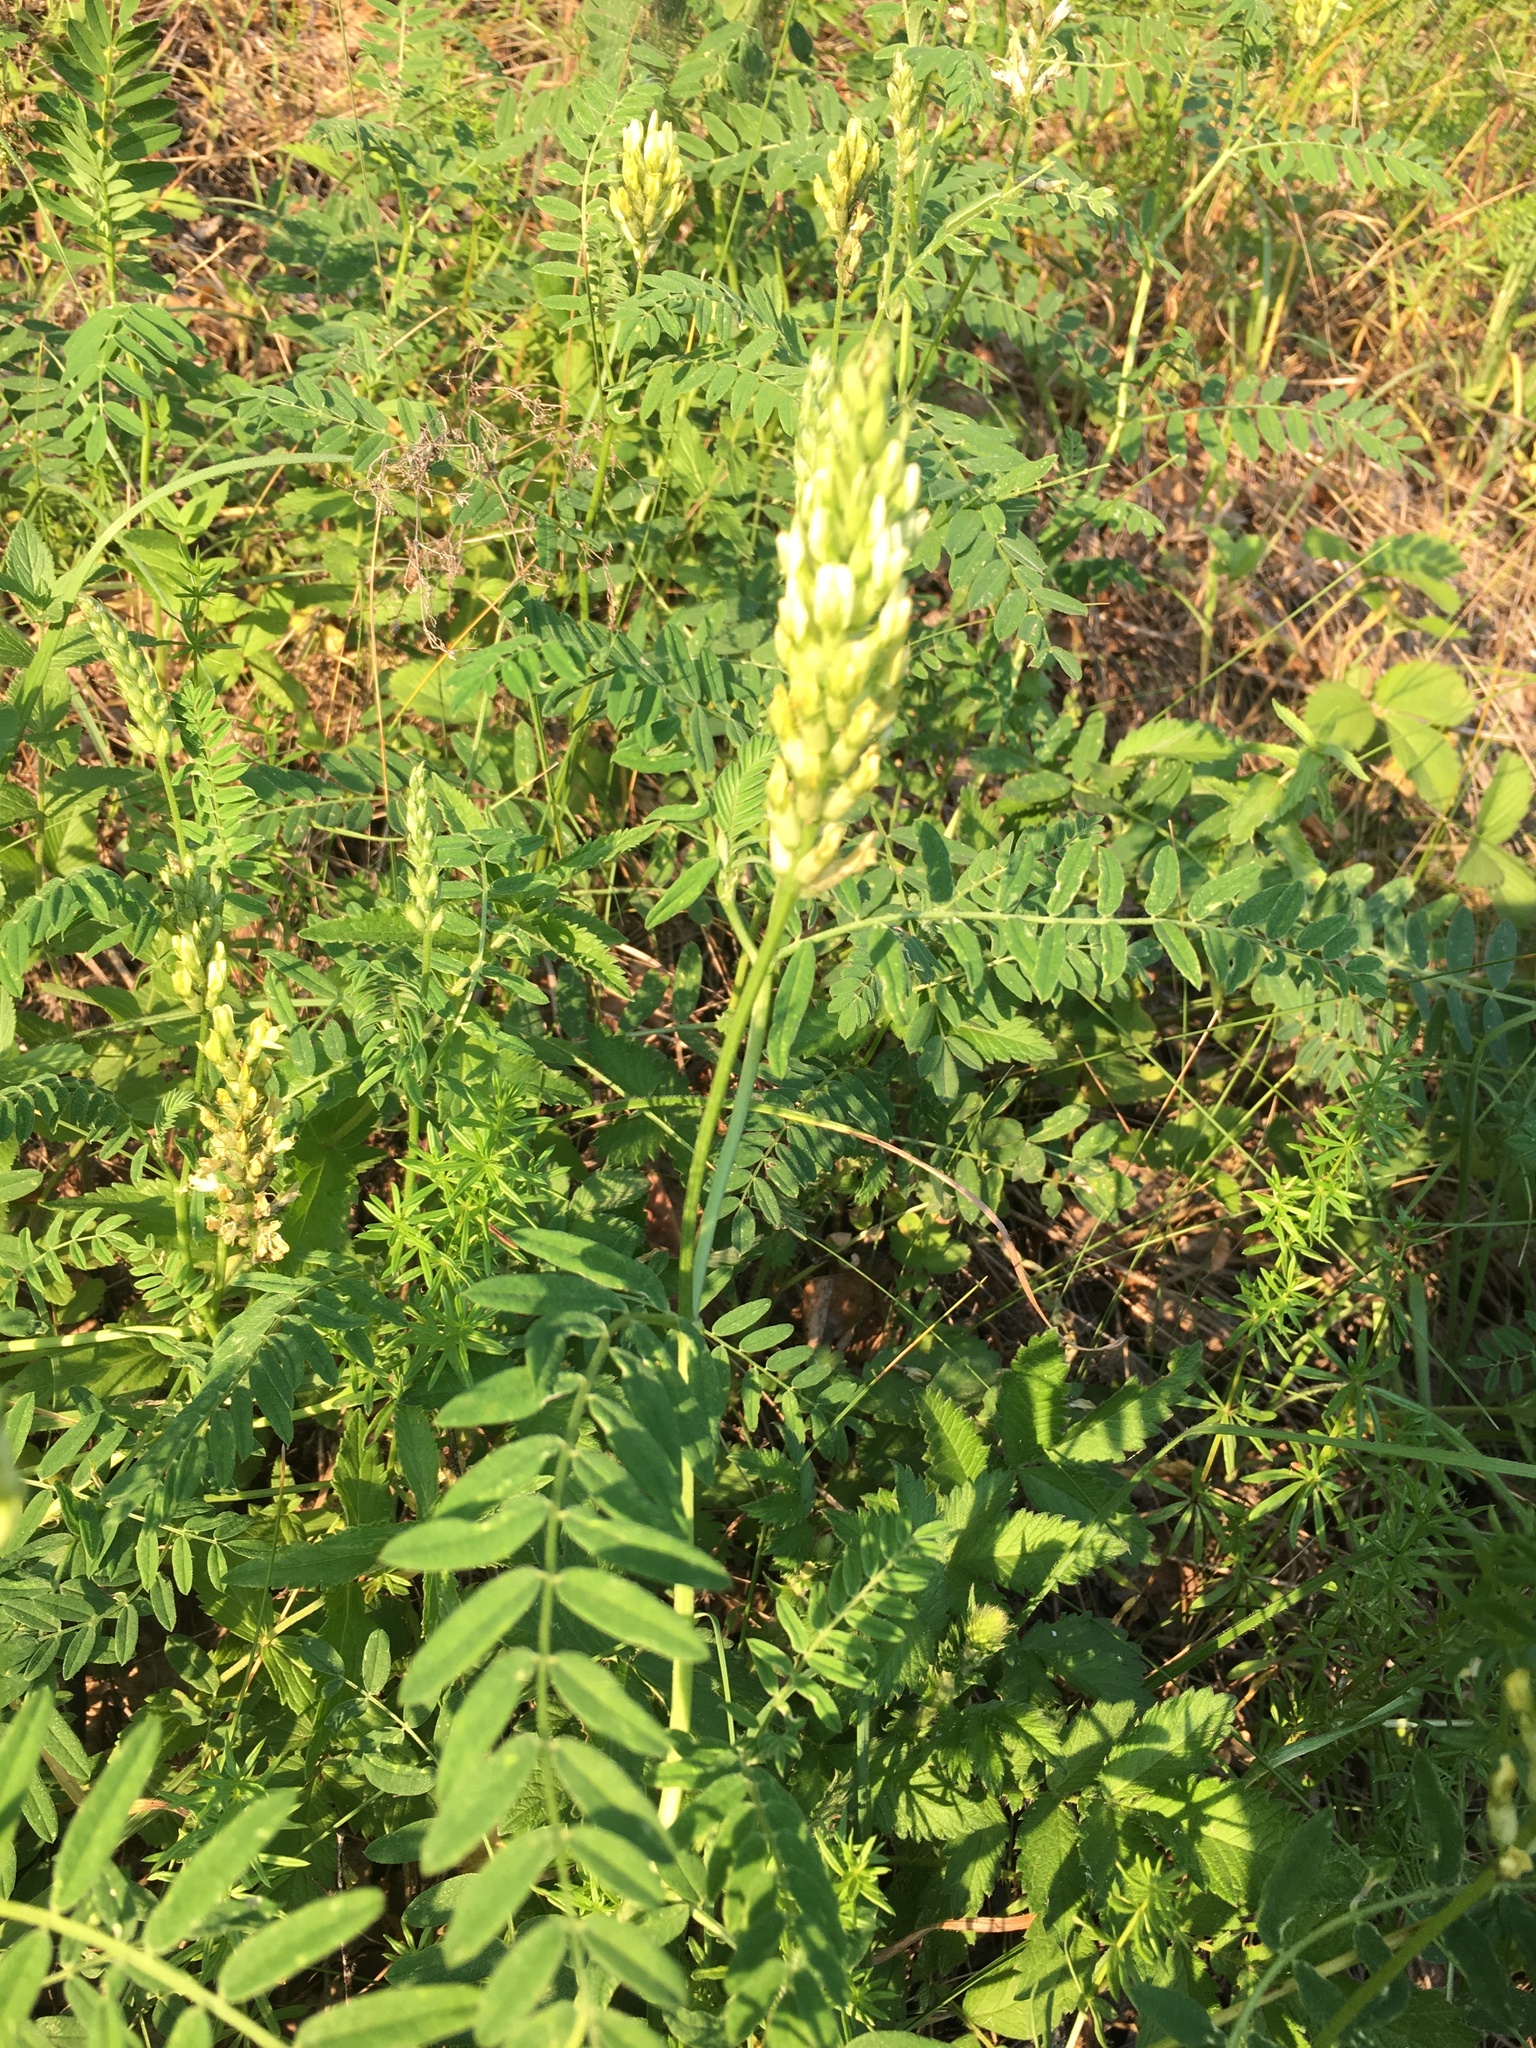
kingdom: Plantae
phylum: Tracheophyta
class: Magnoliopsida
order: Fabales
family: Fabaceae
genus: Astragalus
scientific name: Astragalus cicer
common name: Chick-pea milk-vetch
